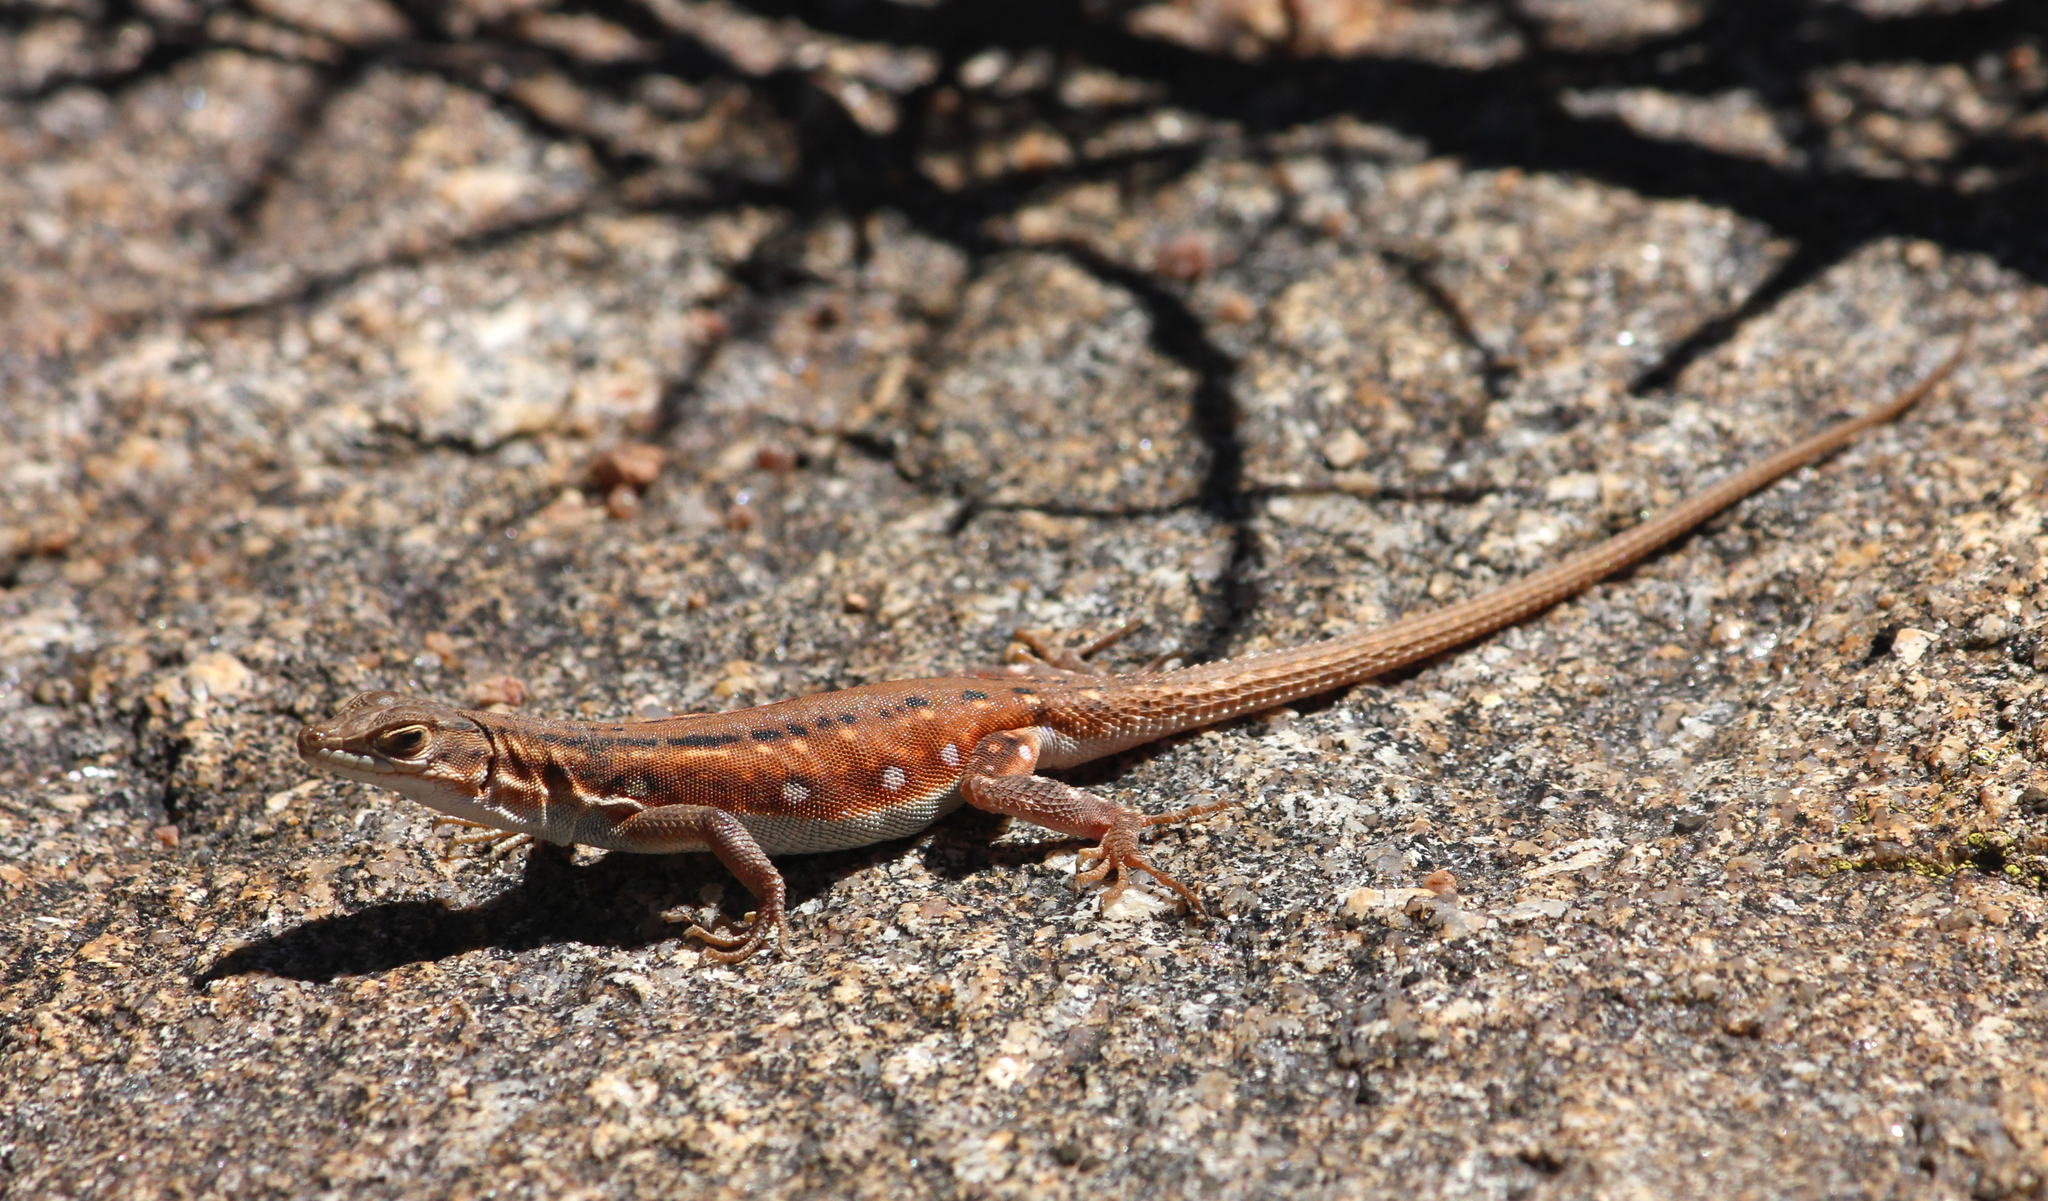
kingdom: Animalia
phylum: Chordata
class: Squamata
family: Lacertidae
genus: Pedioplanis
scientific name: Pedioplanis lineoocellata
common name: Spotted sand lizard
